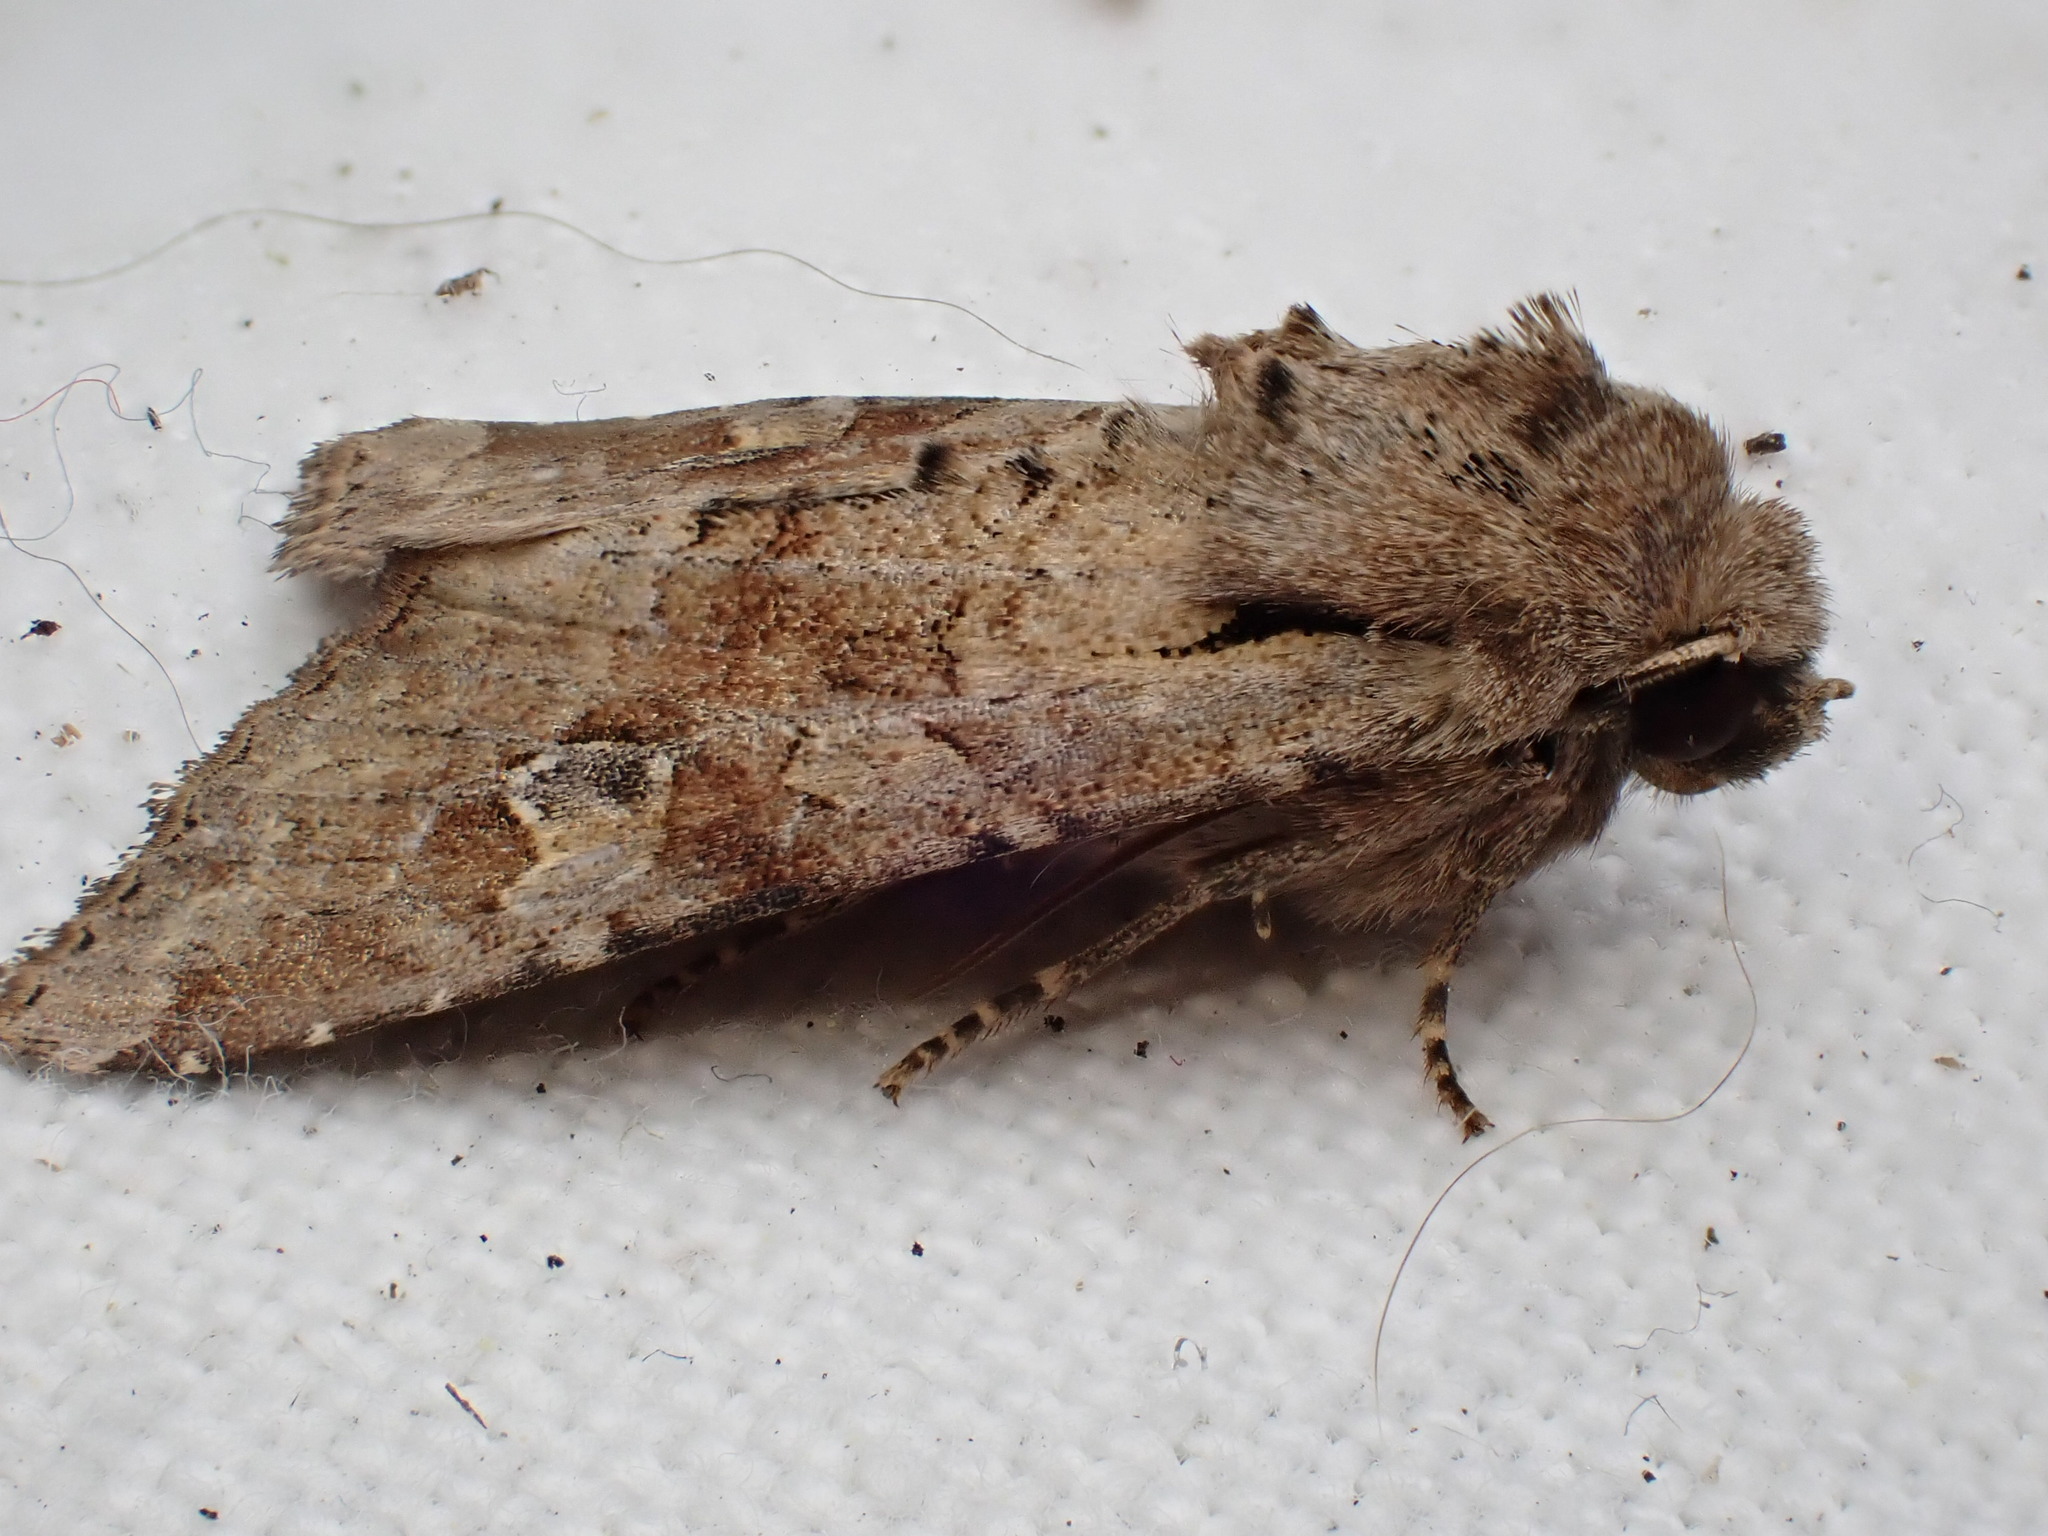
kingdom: Animalia
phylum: Arthropoda
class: Insecta
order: Lepidoptera
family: Noctuidae
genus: Apamea
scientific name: Apamea sordens
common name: Rustic shoulder-knot
